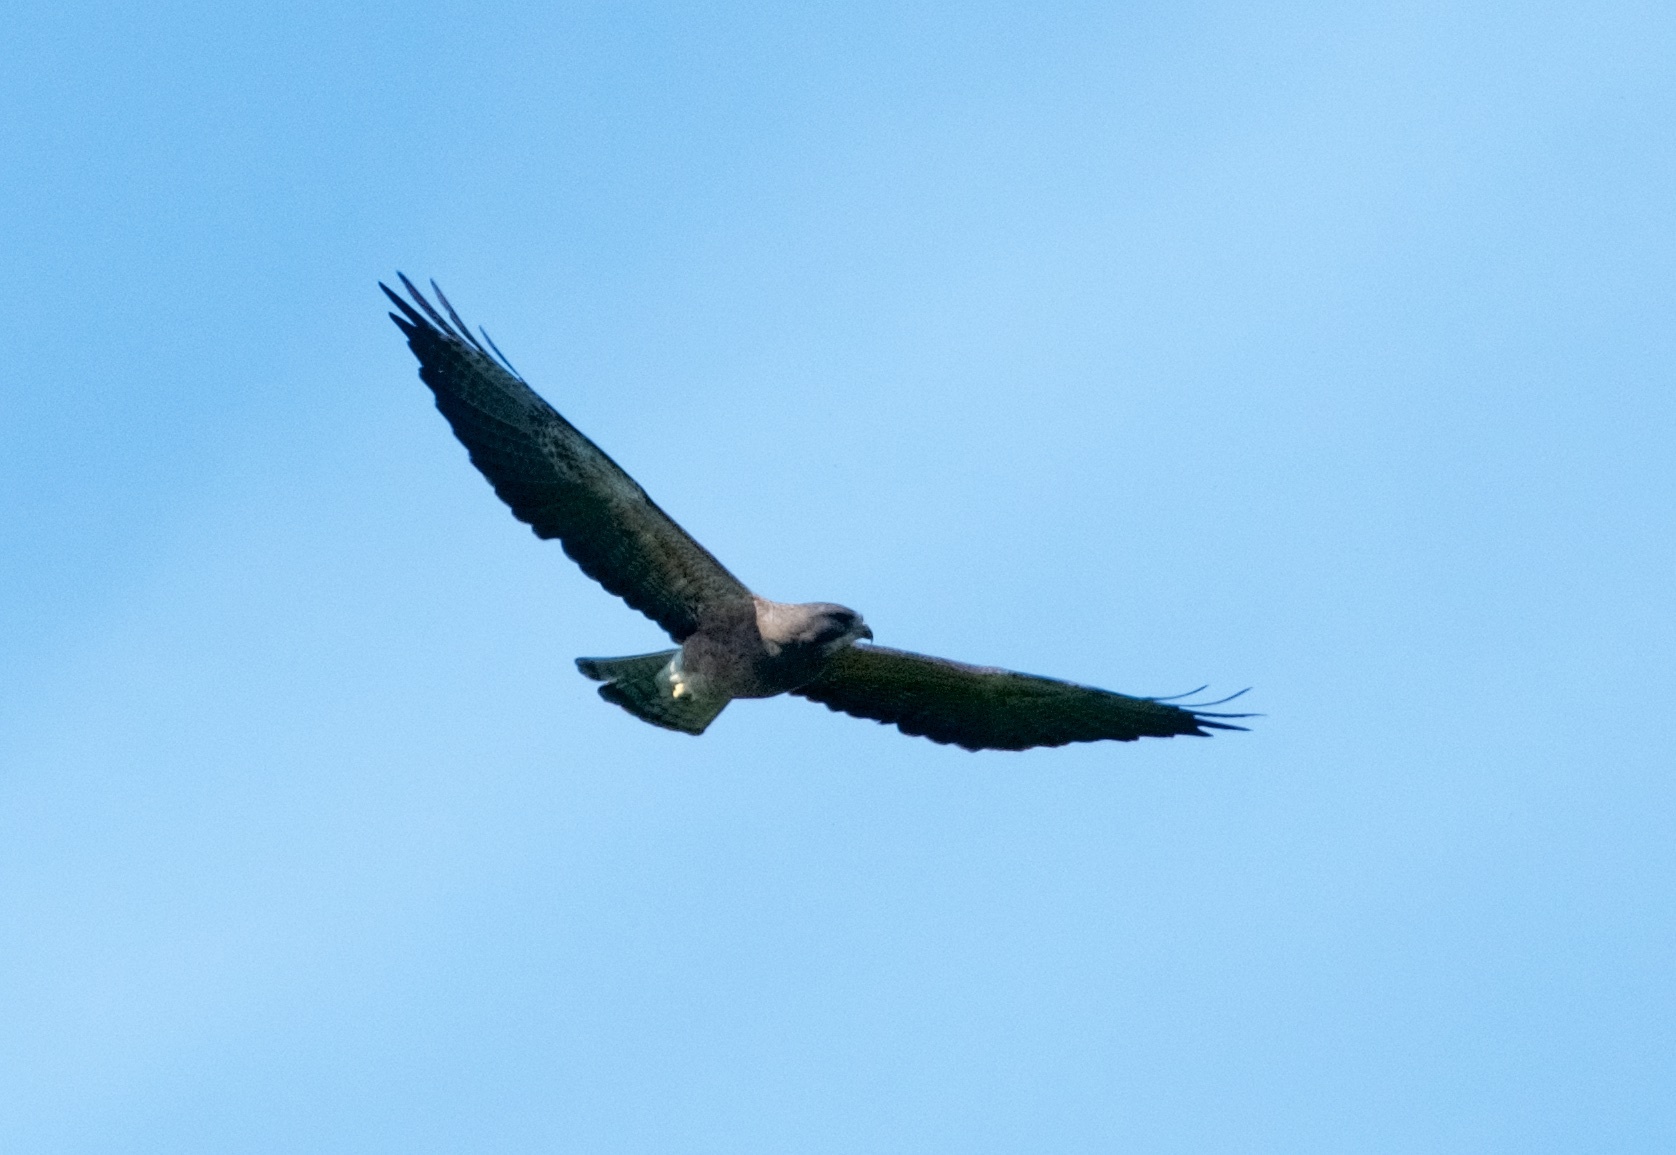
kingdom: Animalia
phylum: Chordata
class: Aves
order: Accipitriformes
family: Accipitridae
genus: Buteo
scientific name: Buteo swainsoni
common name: Swainson's hawk
